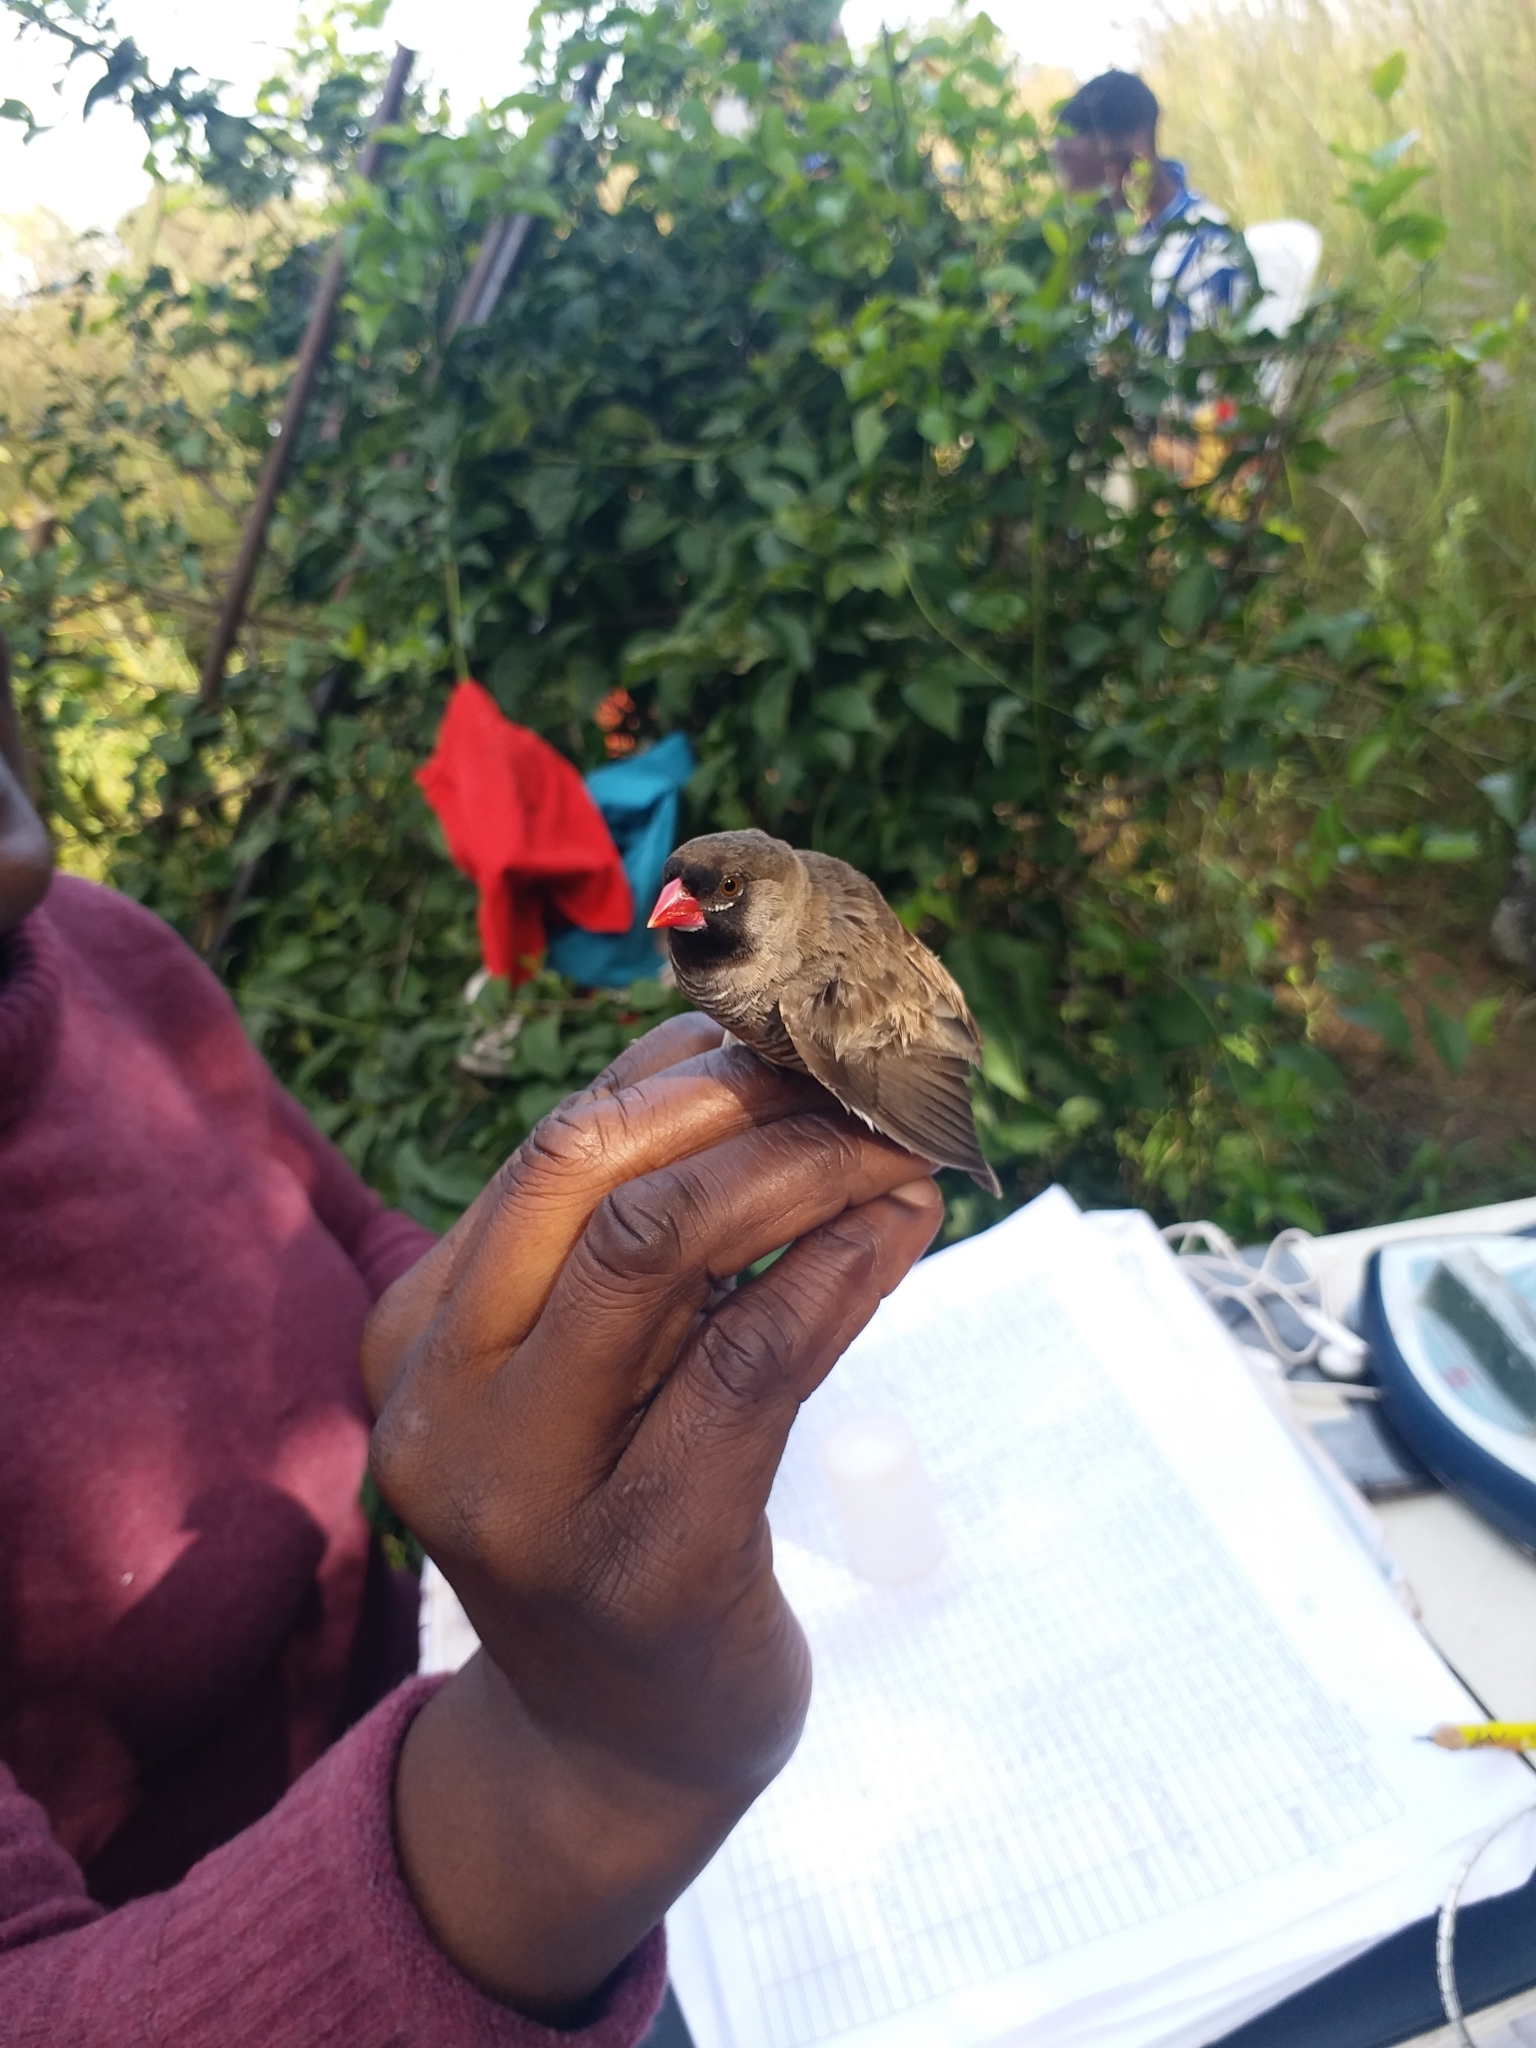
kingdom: Animalia
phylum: Chordata
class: Aves
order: Passeriformes
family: Estrildidae
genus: Ortygospiza
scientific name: Ortygospiza atricollis
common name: Quailfinch
